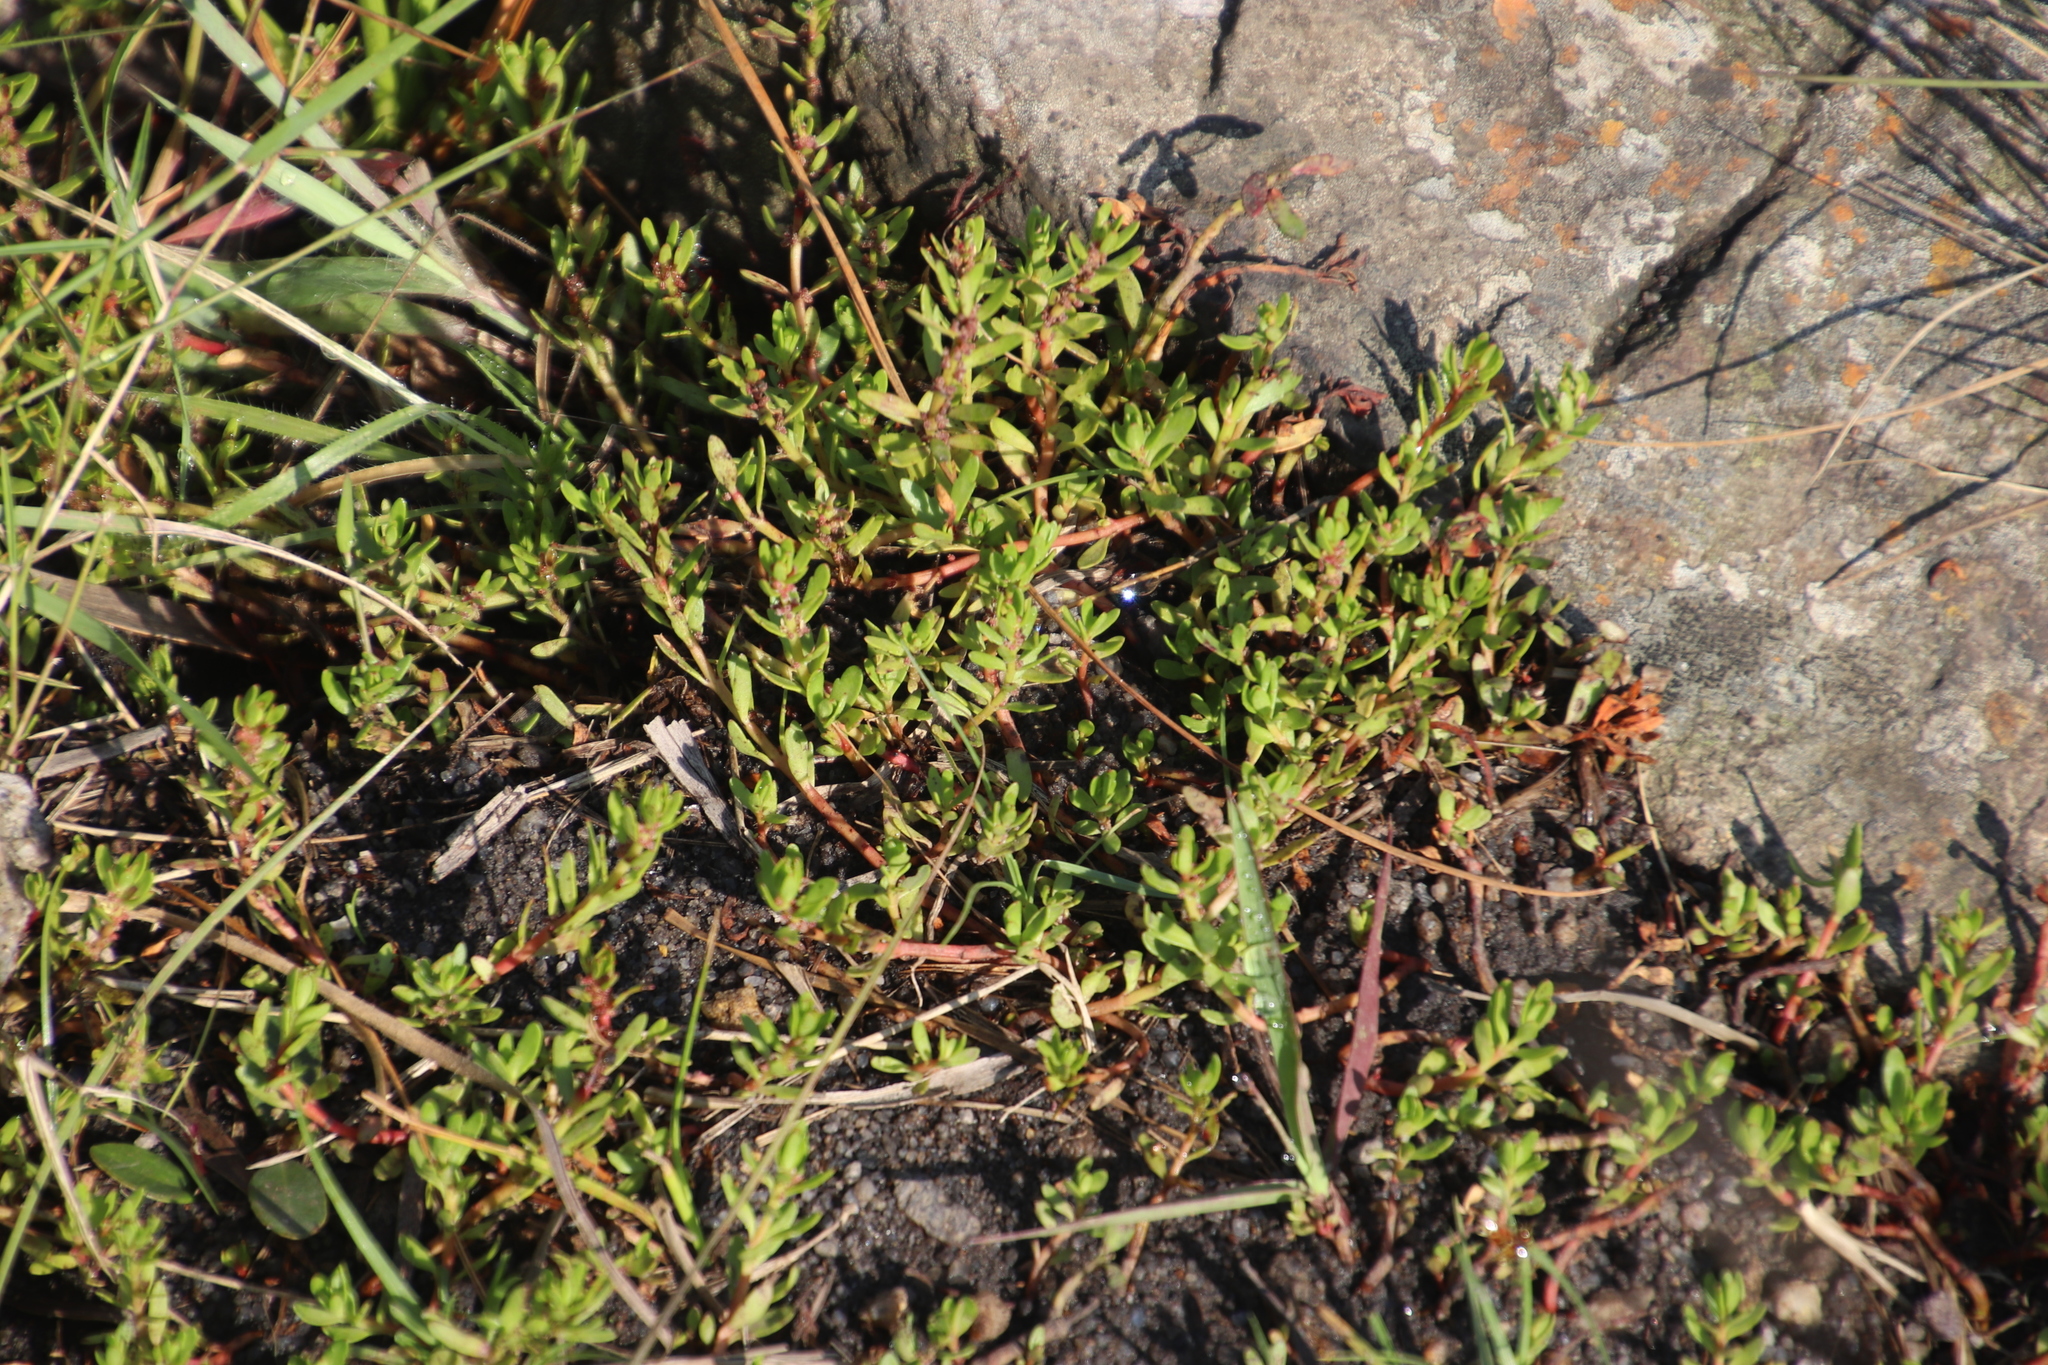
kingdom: Plantae
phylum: Tracheophyta
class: Magnoliopsida
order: Saxifragales
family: Haloragaceae
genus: Laurembergia
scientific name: Laurembergia repens
